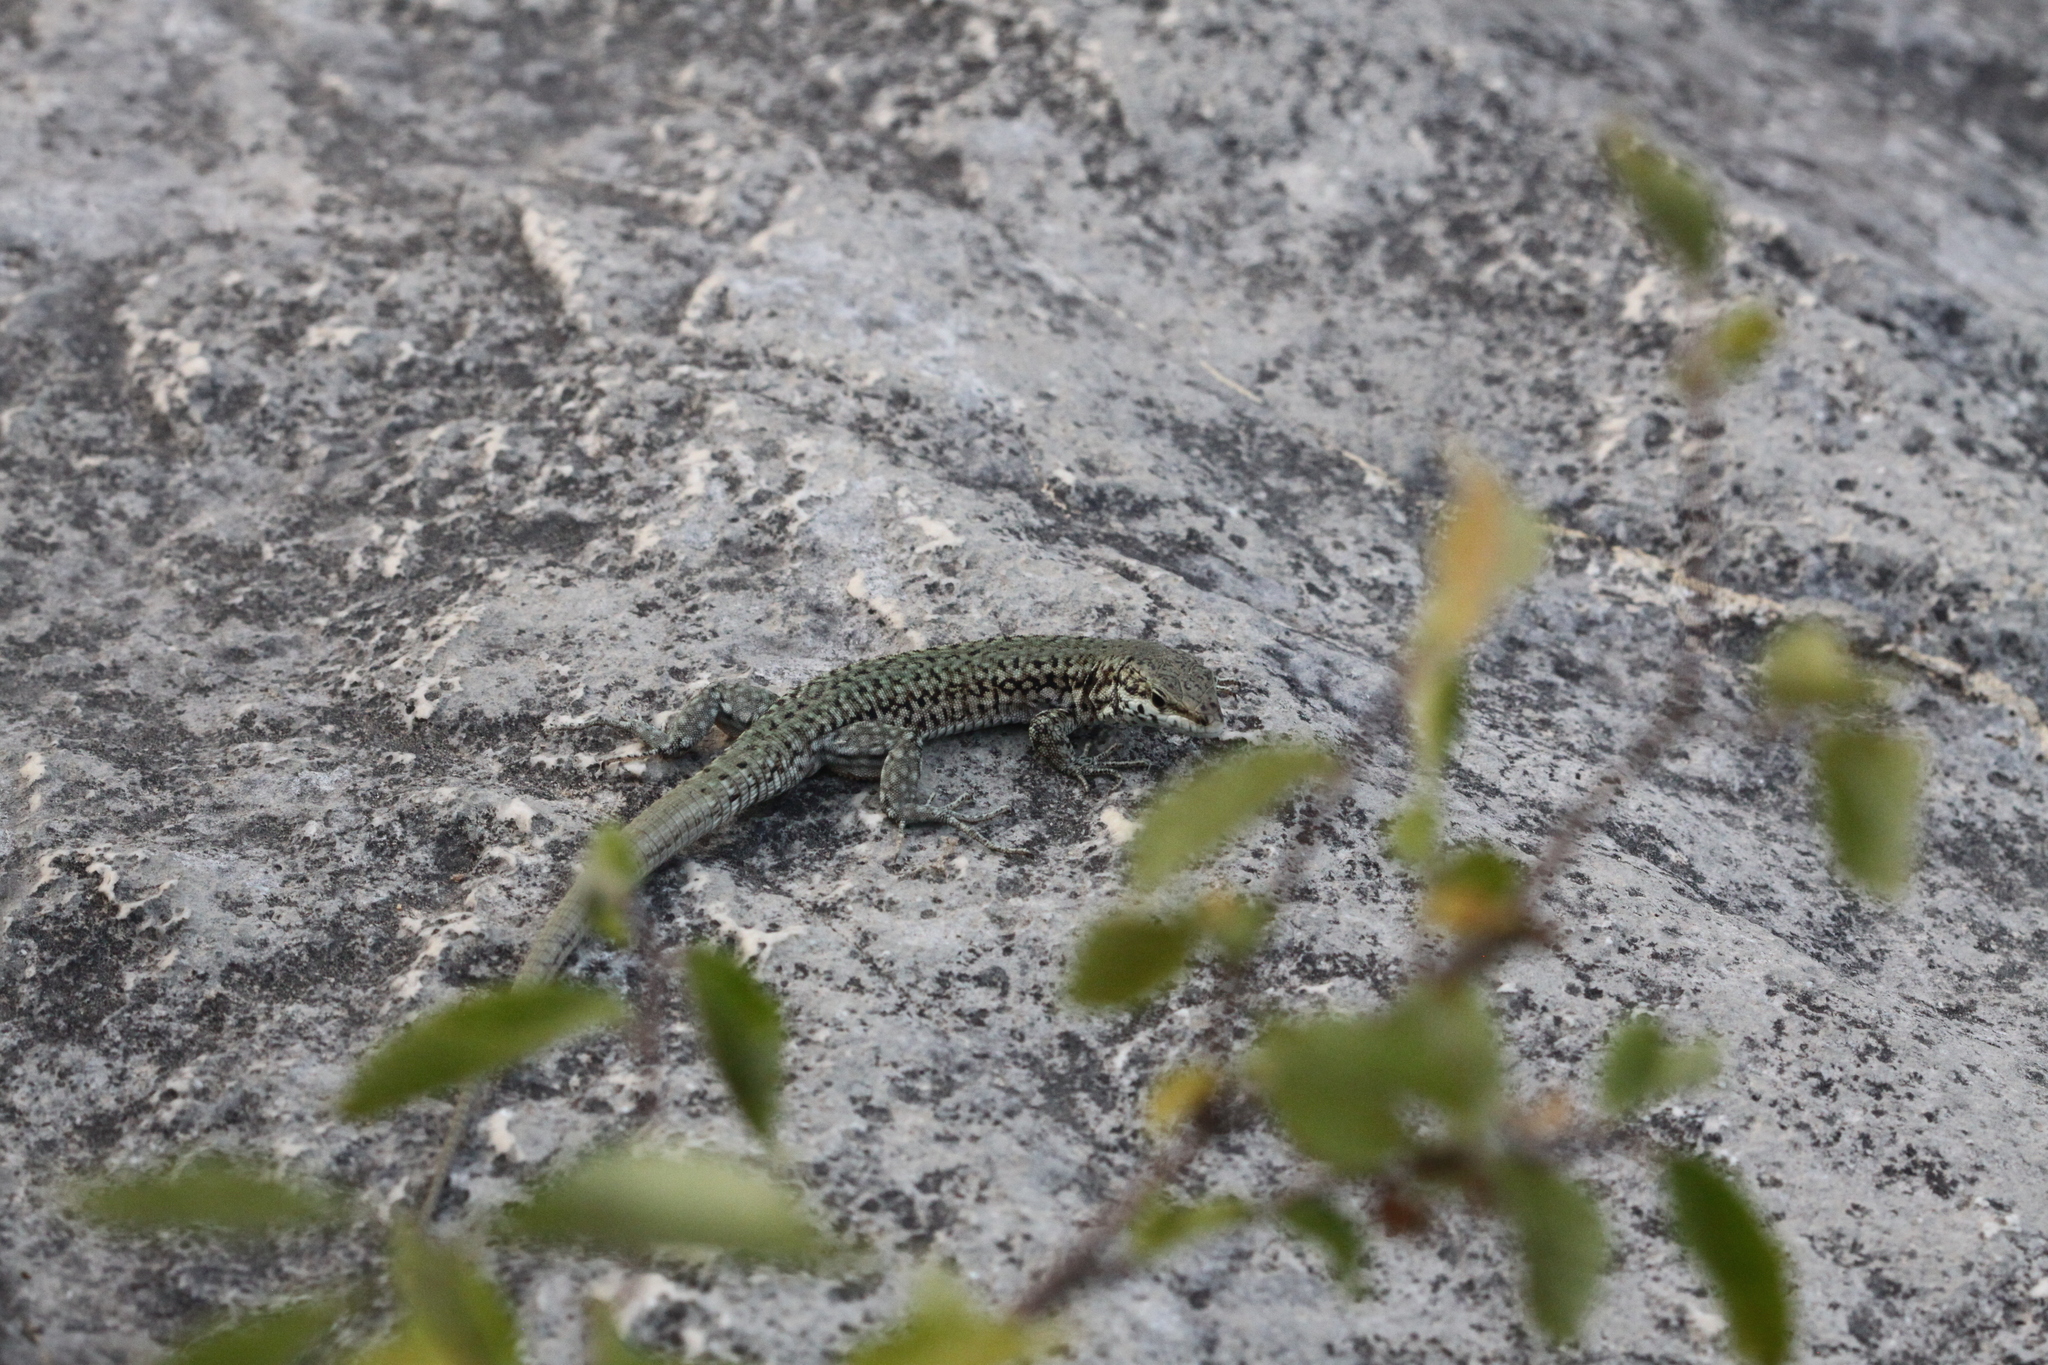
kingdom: Animalia
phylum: Chordata
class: Squamata
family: Lacertidae
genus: Podarcis
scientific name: Podarcis liolepis
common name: Catalonian wall lizard
